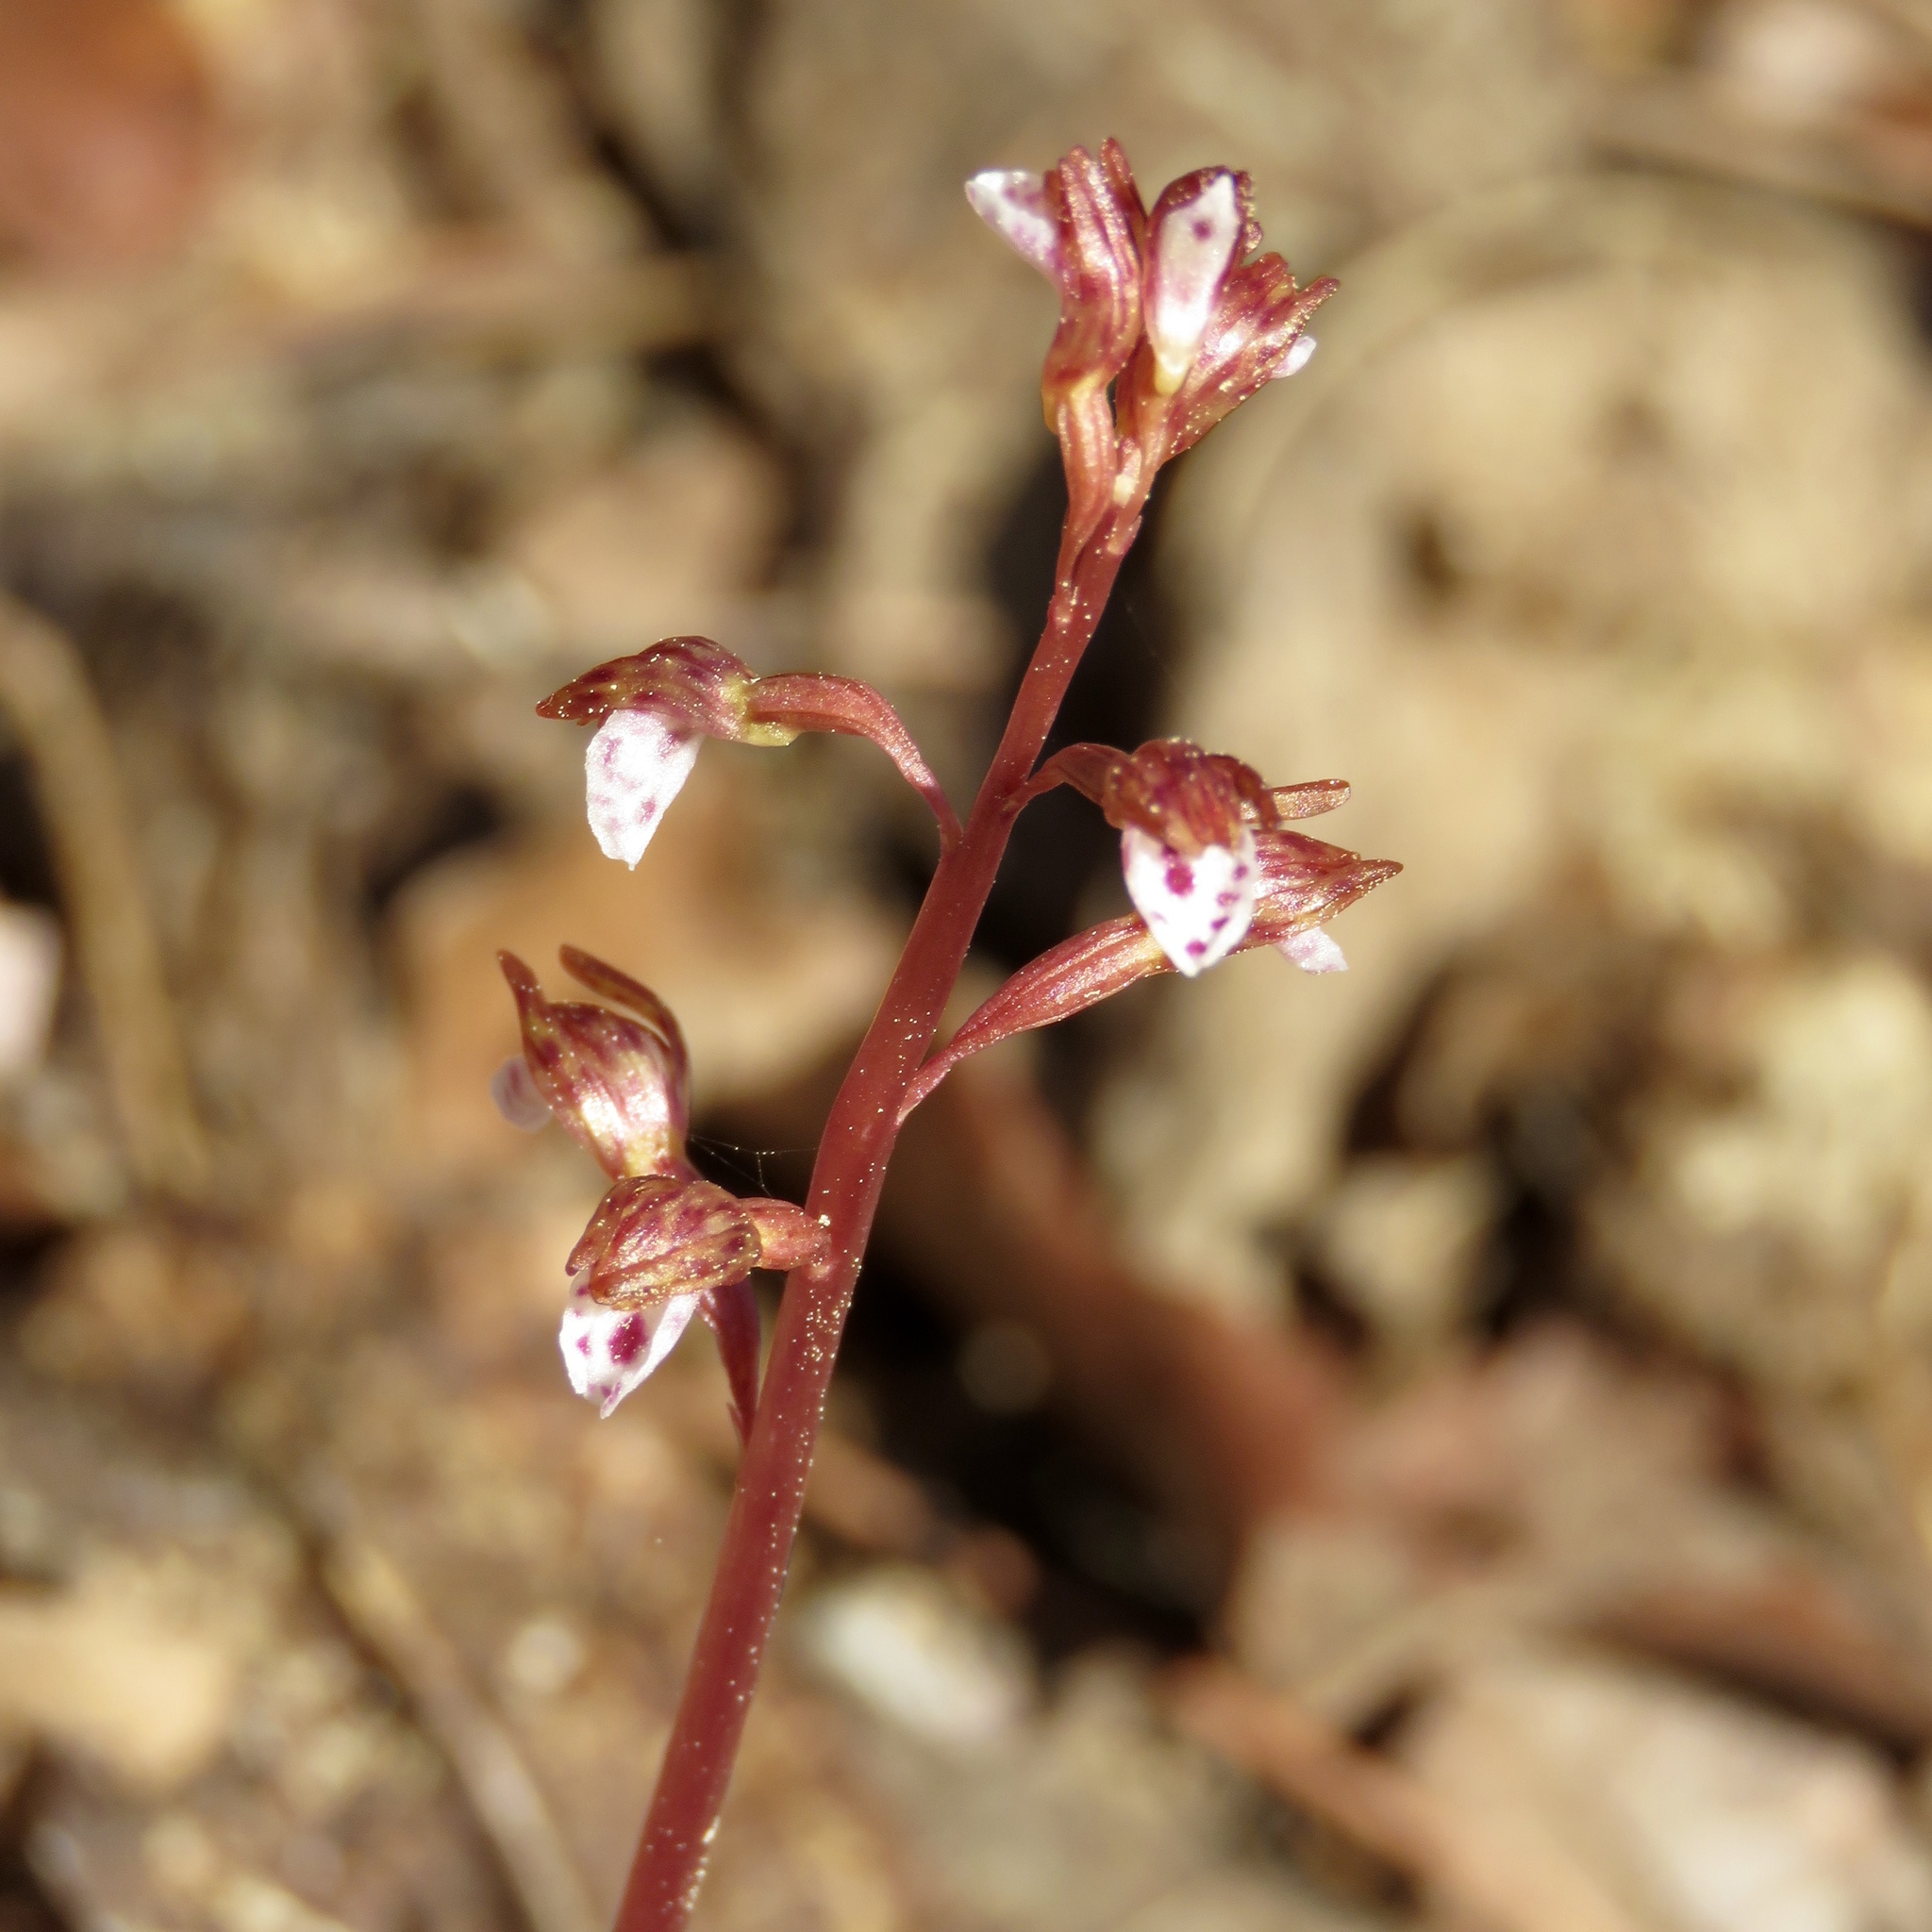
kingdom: Plantae
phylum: Tracheophyta
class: Liliopsida
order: Asparagales
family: Orchidaceae
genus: Corallorhiza
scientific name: Corallorhiza wisteriana
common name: Spring coralroot
